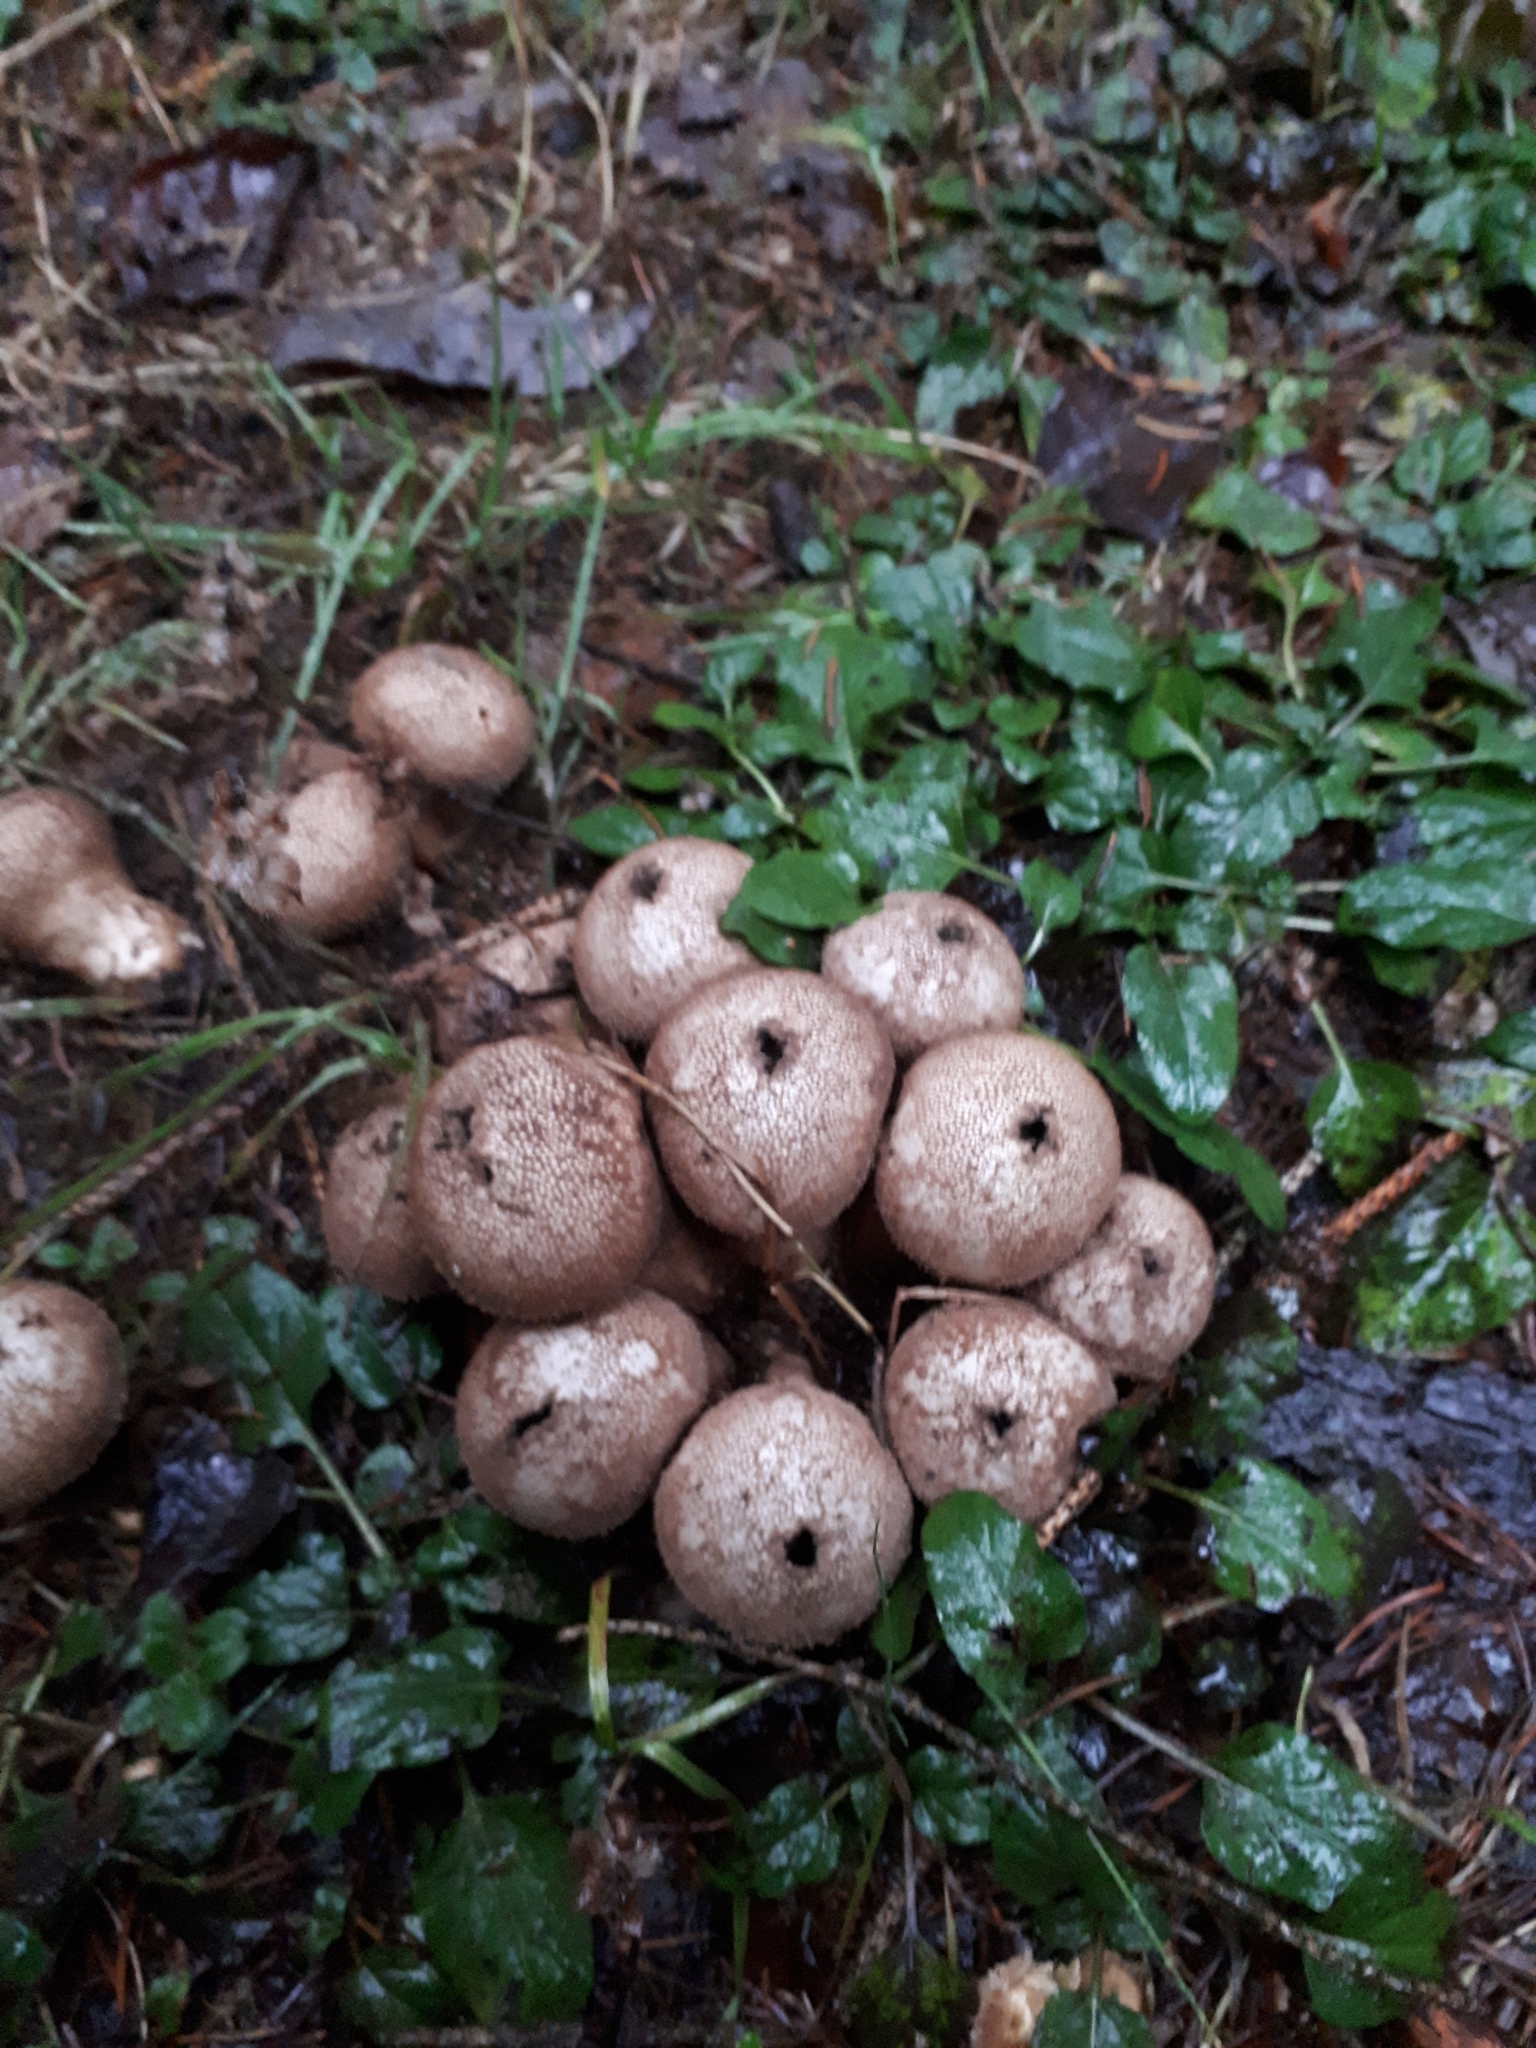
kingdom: Fungi
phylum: Basidiomycota
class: Agaricomycetes
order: Agaricales
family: Lycoperdaceae
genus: Lycoperdon
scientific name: Lycoperdon perlatum
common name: Common puffball
